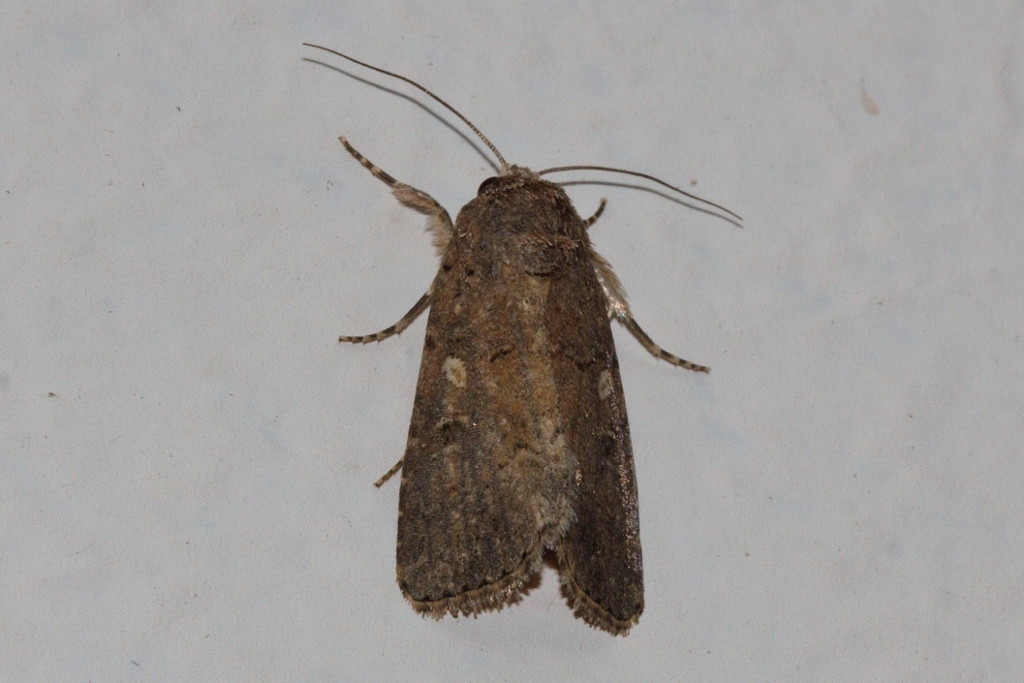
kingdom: Animalia
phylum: Arthropoda
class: Insecta
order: Lepidoptera
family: Noctuidae
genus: Spodoptera
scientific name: Spodoptera cilium
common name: Dark mottled willow
